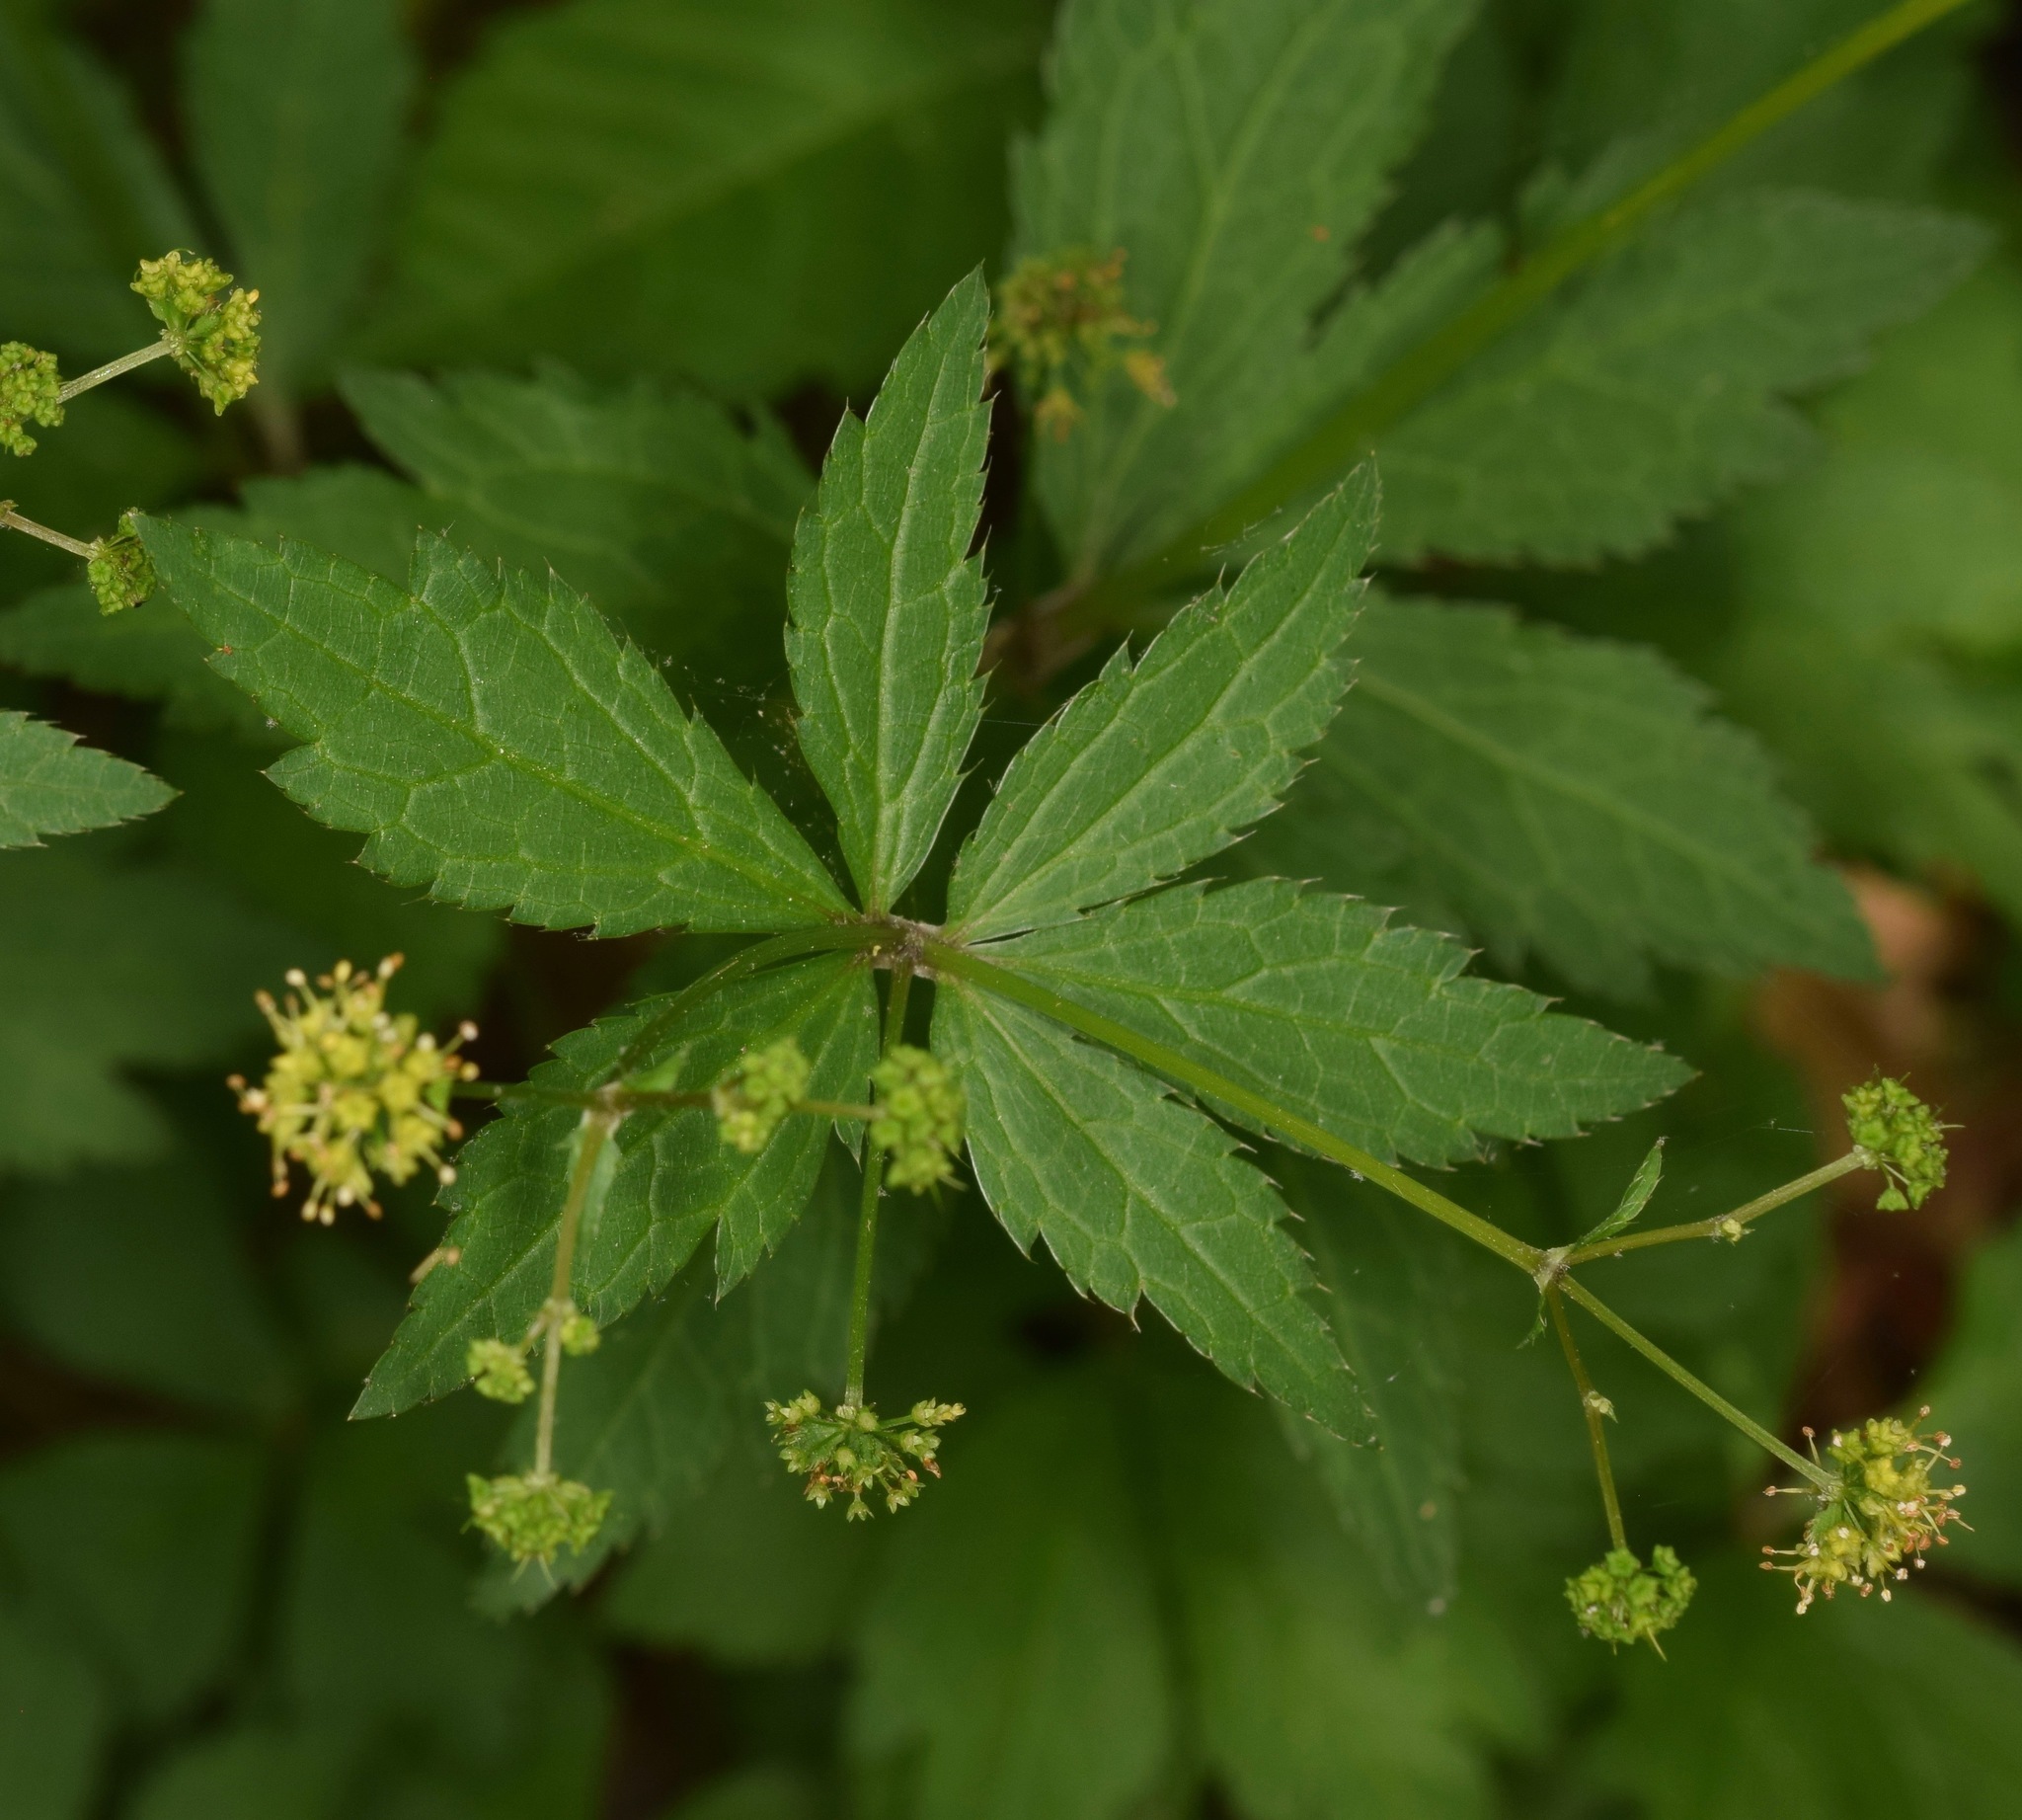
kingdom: Plantae
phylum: Tracheophyta
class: Magnoliopsida
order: Apiales
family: Apiaceae
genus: Sanicula
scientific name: Sanicula odorata
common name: Cluster sanicle
